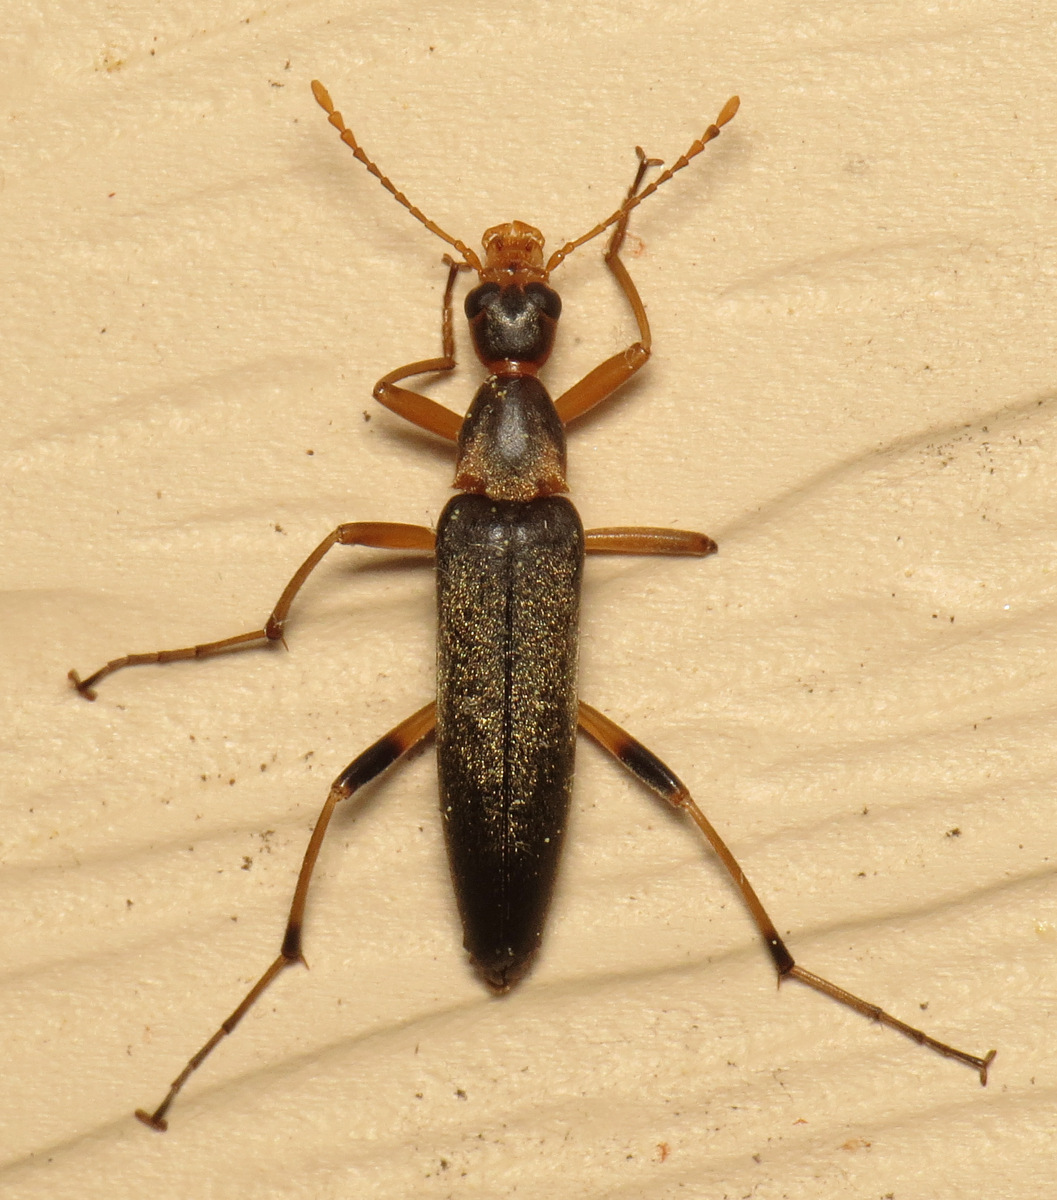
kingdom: Animalia
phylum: Arthropoda
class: Insecta
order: Coleoptera
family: Stenotrachelidae
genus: Cephaloon
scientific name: Cephaloon lepturides
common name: False leptura beetle
